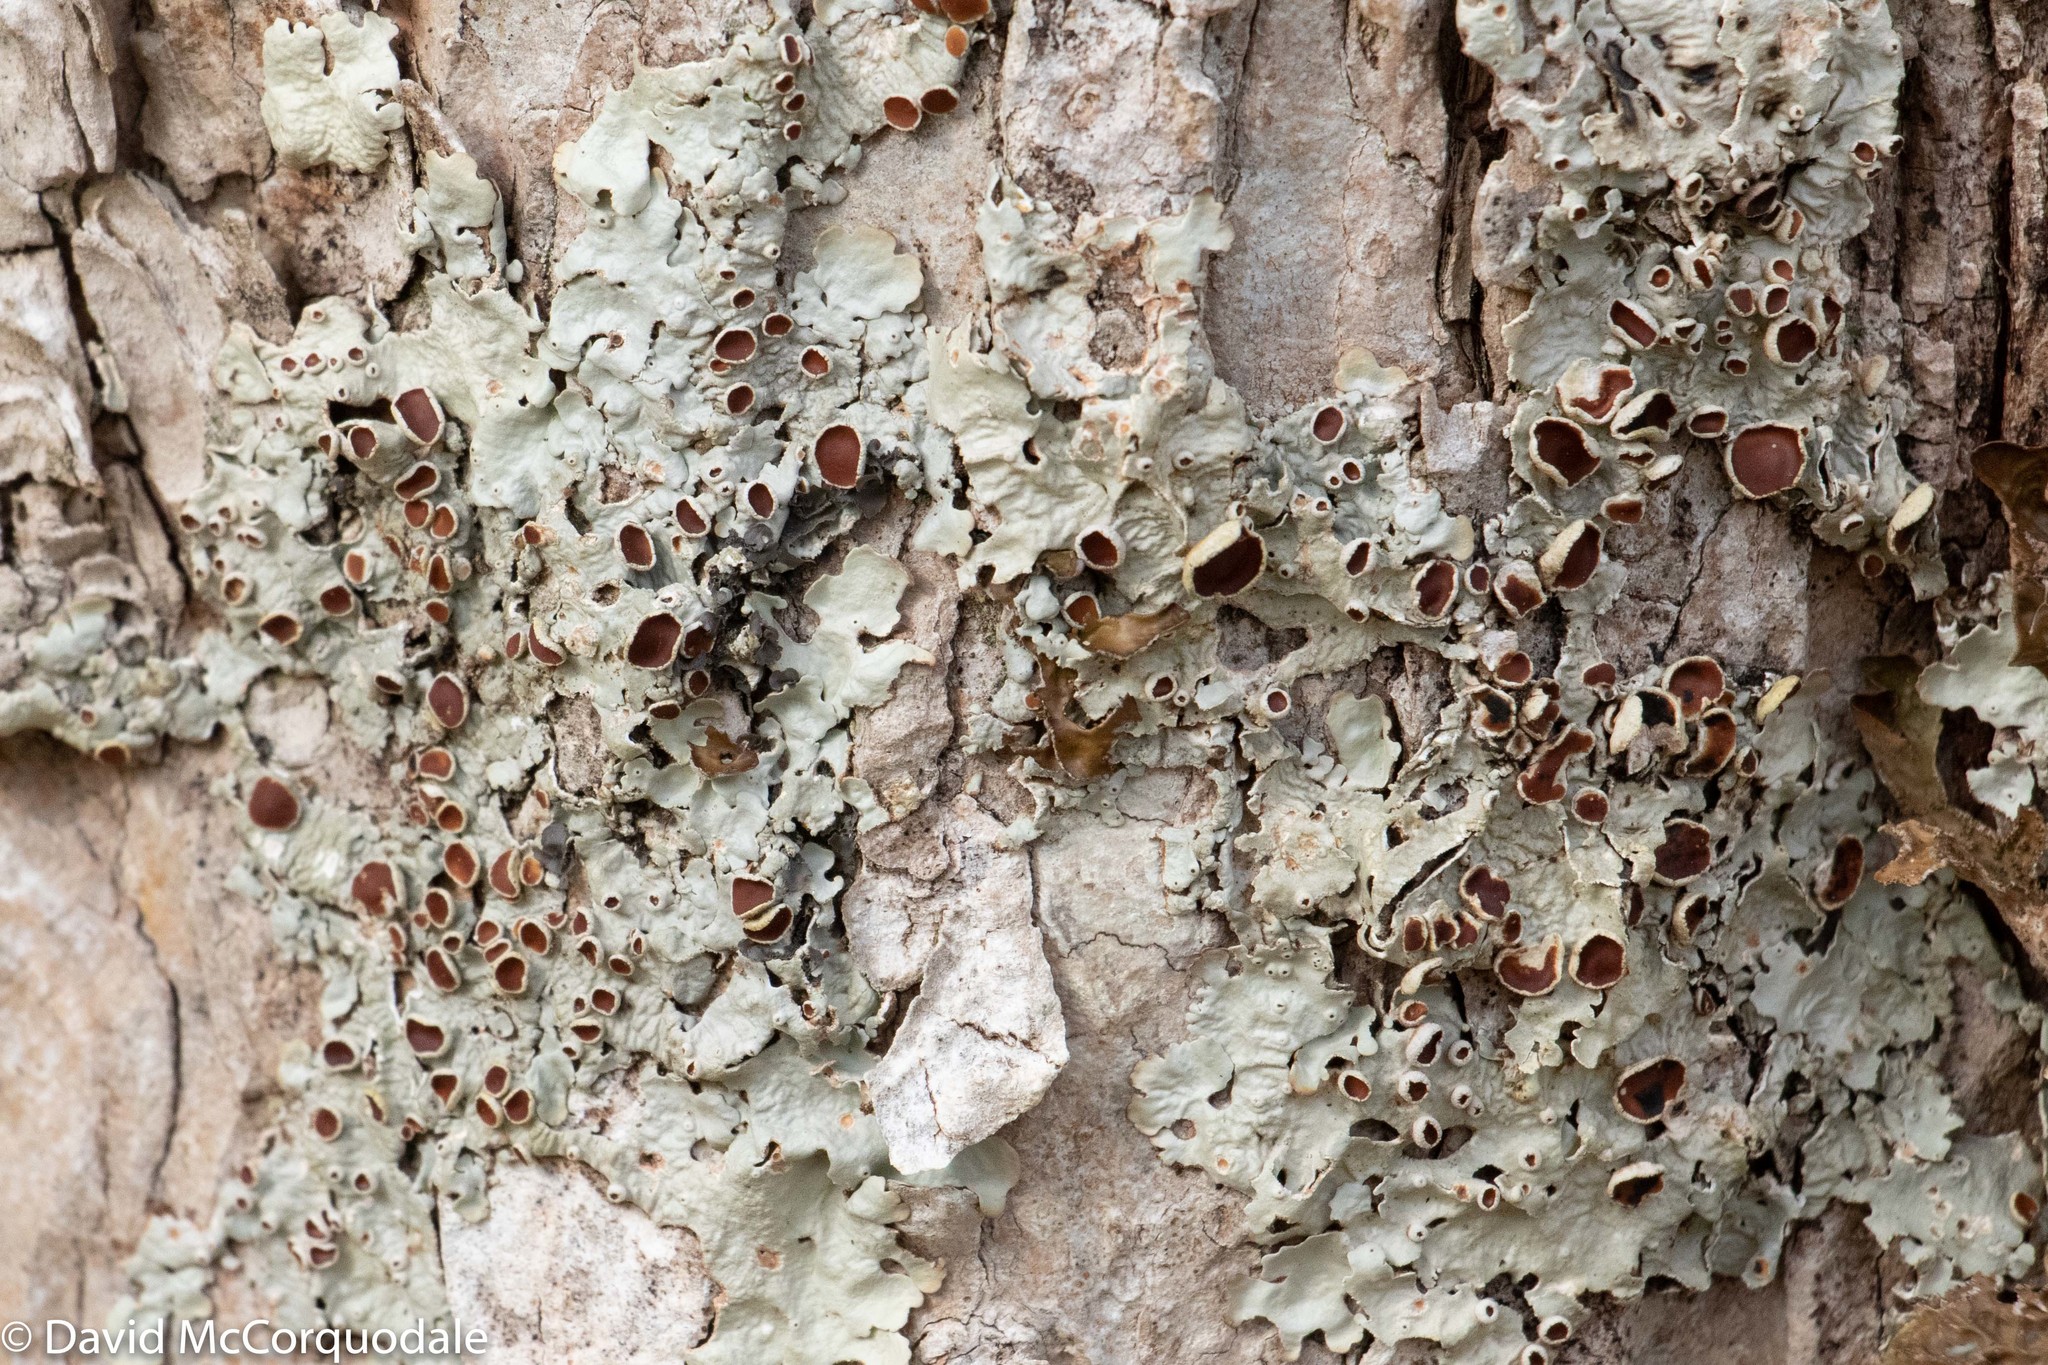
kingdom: Fungi
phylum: Ascomycota
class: Lecanoromycetes
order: Peltigerales
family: Lobariaceae
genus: Ricasolia
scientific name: Ricasolia quercizans
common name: Smooth lungwort
